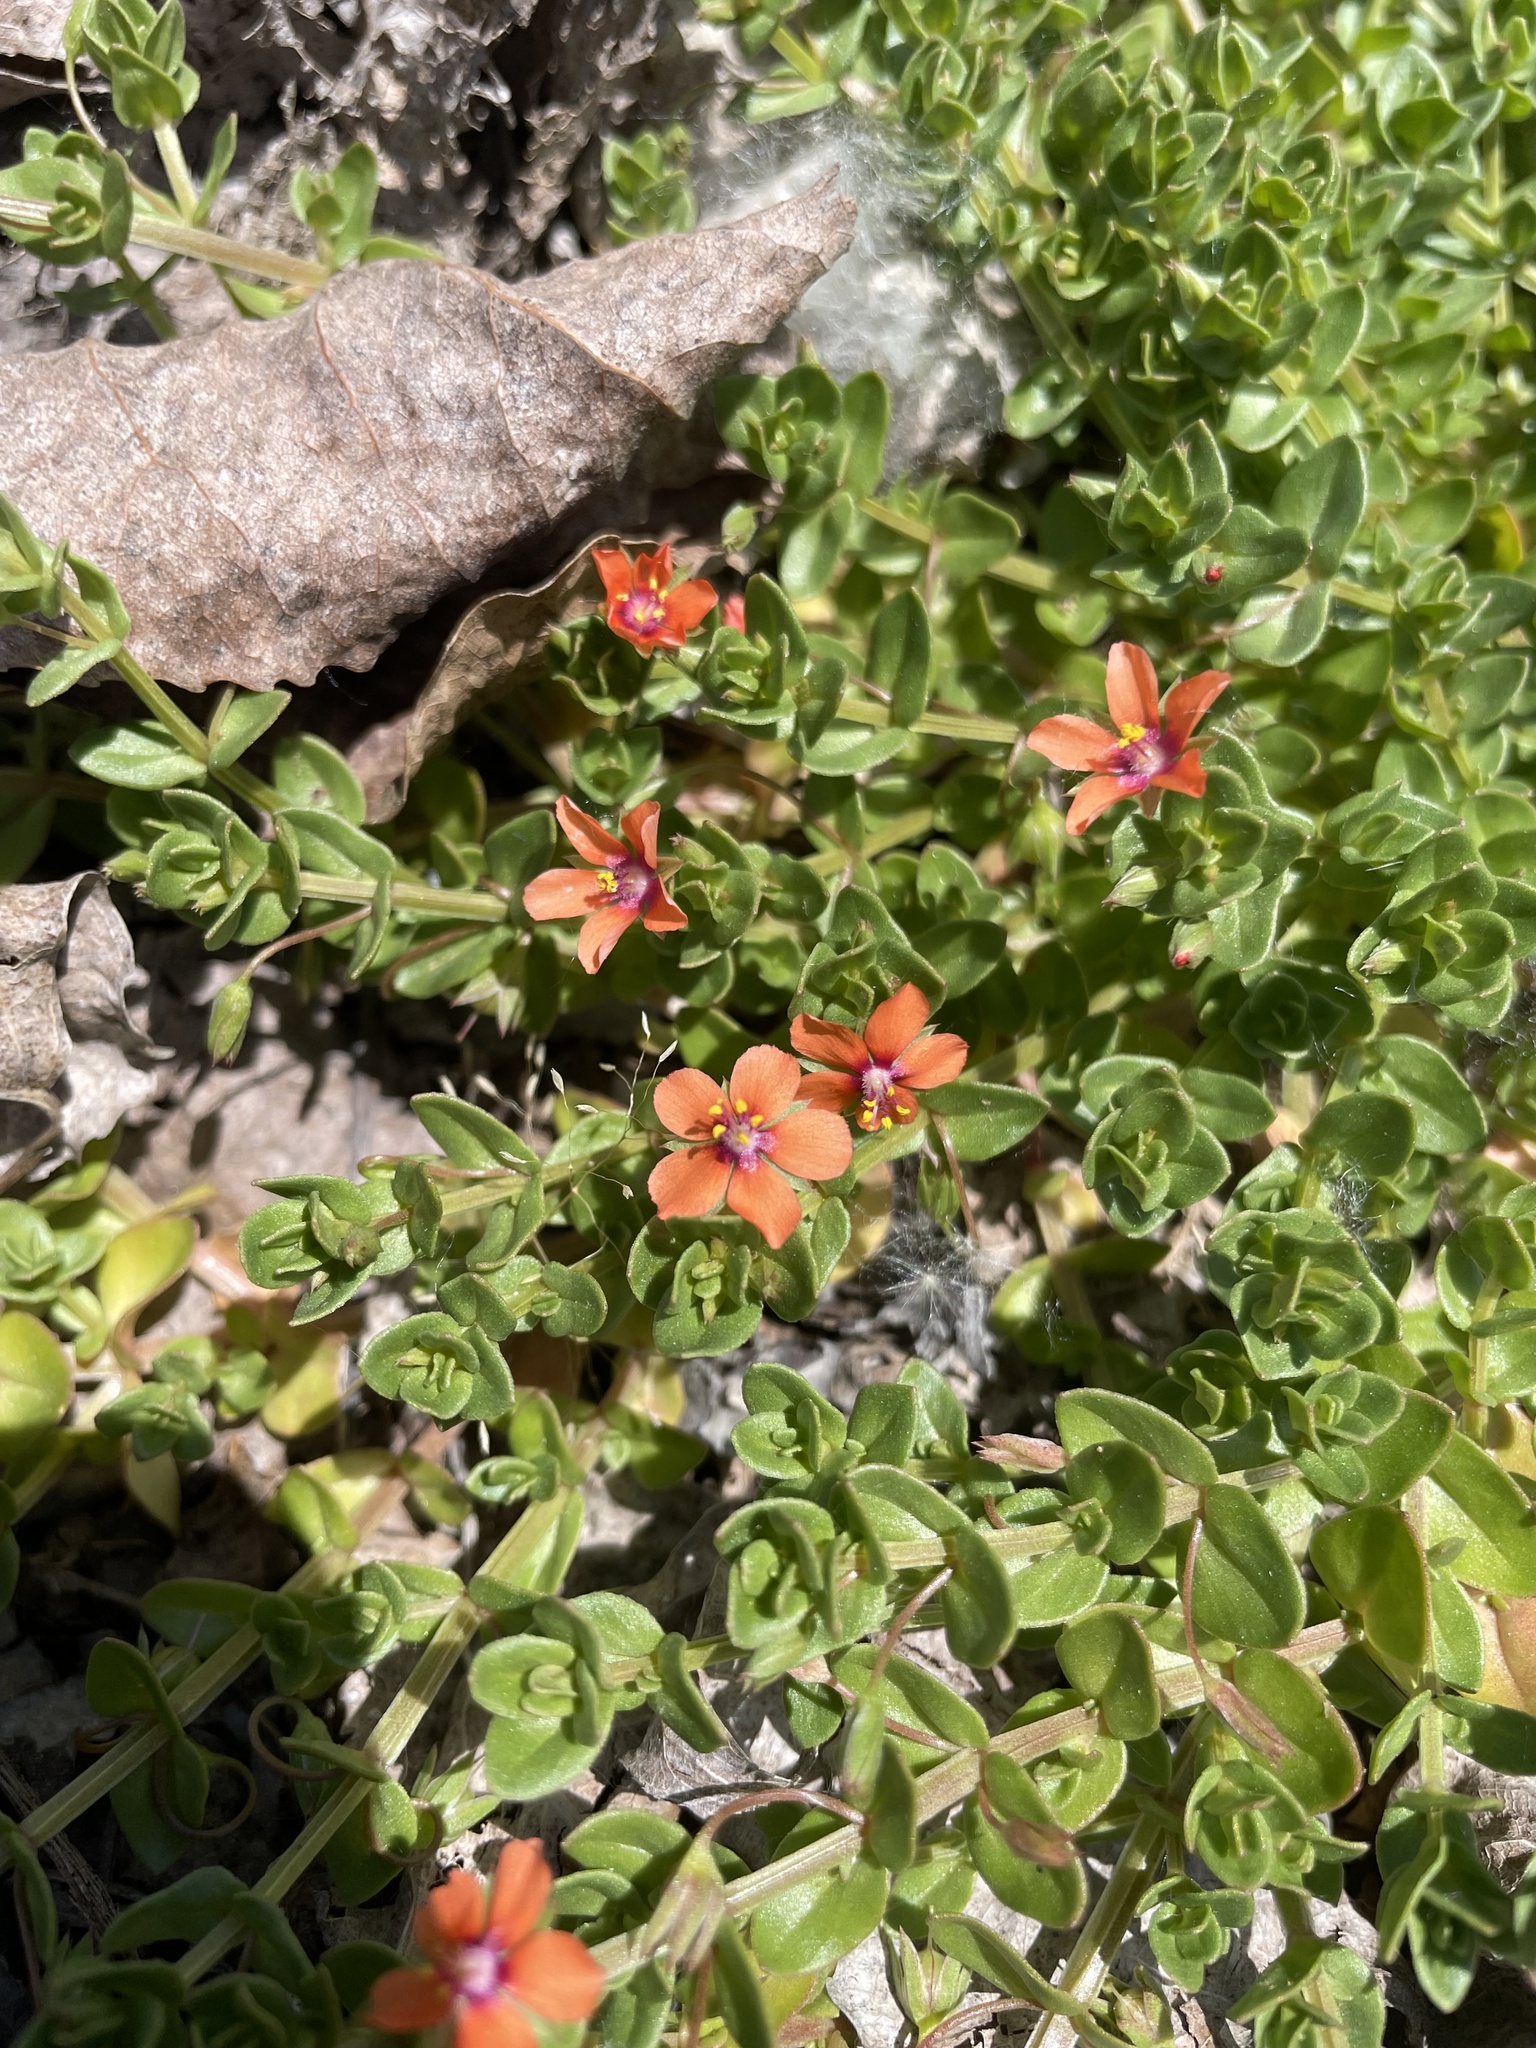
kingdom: Plantae
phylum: Tracheophyta
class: Magnoliopsida
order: Ericales
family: Primulaceae
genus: Lysimachia
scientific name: Lysimachia arvensis
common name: Scarlet pimpernel
